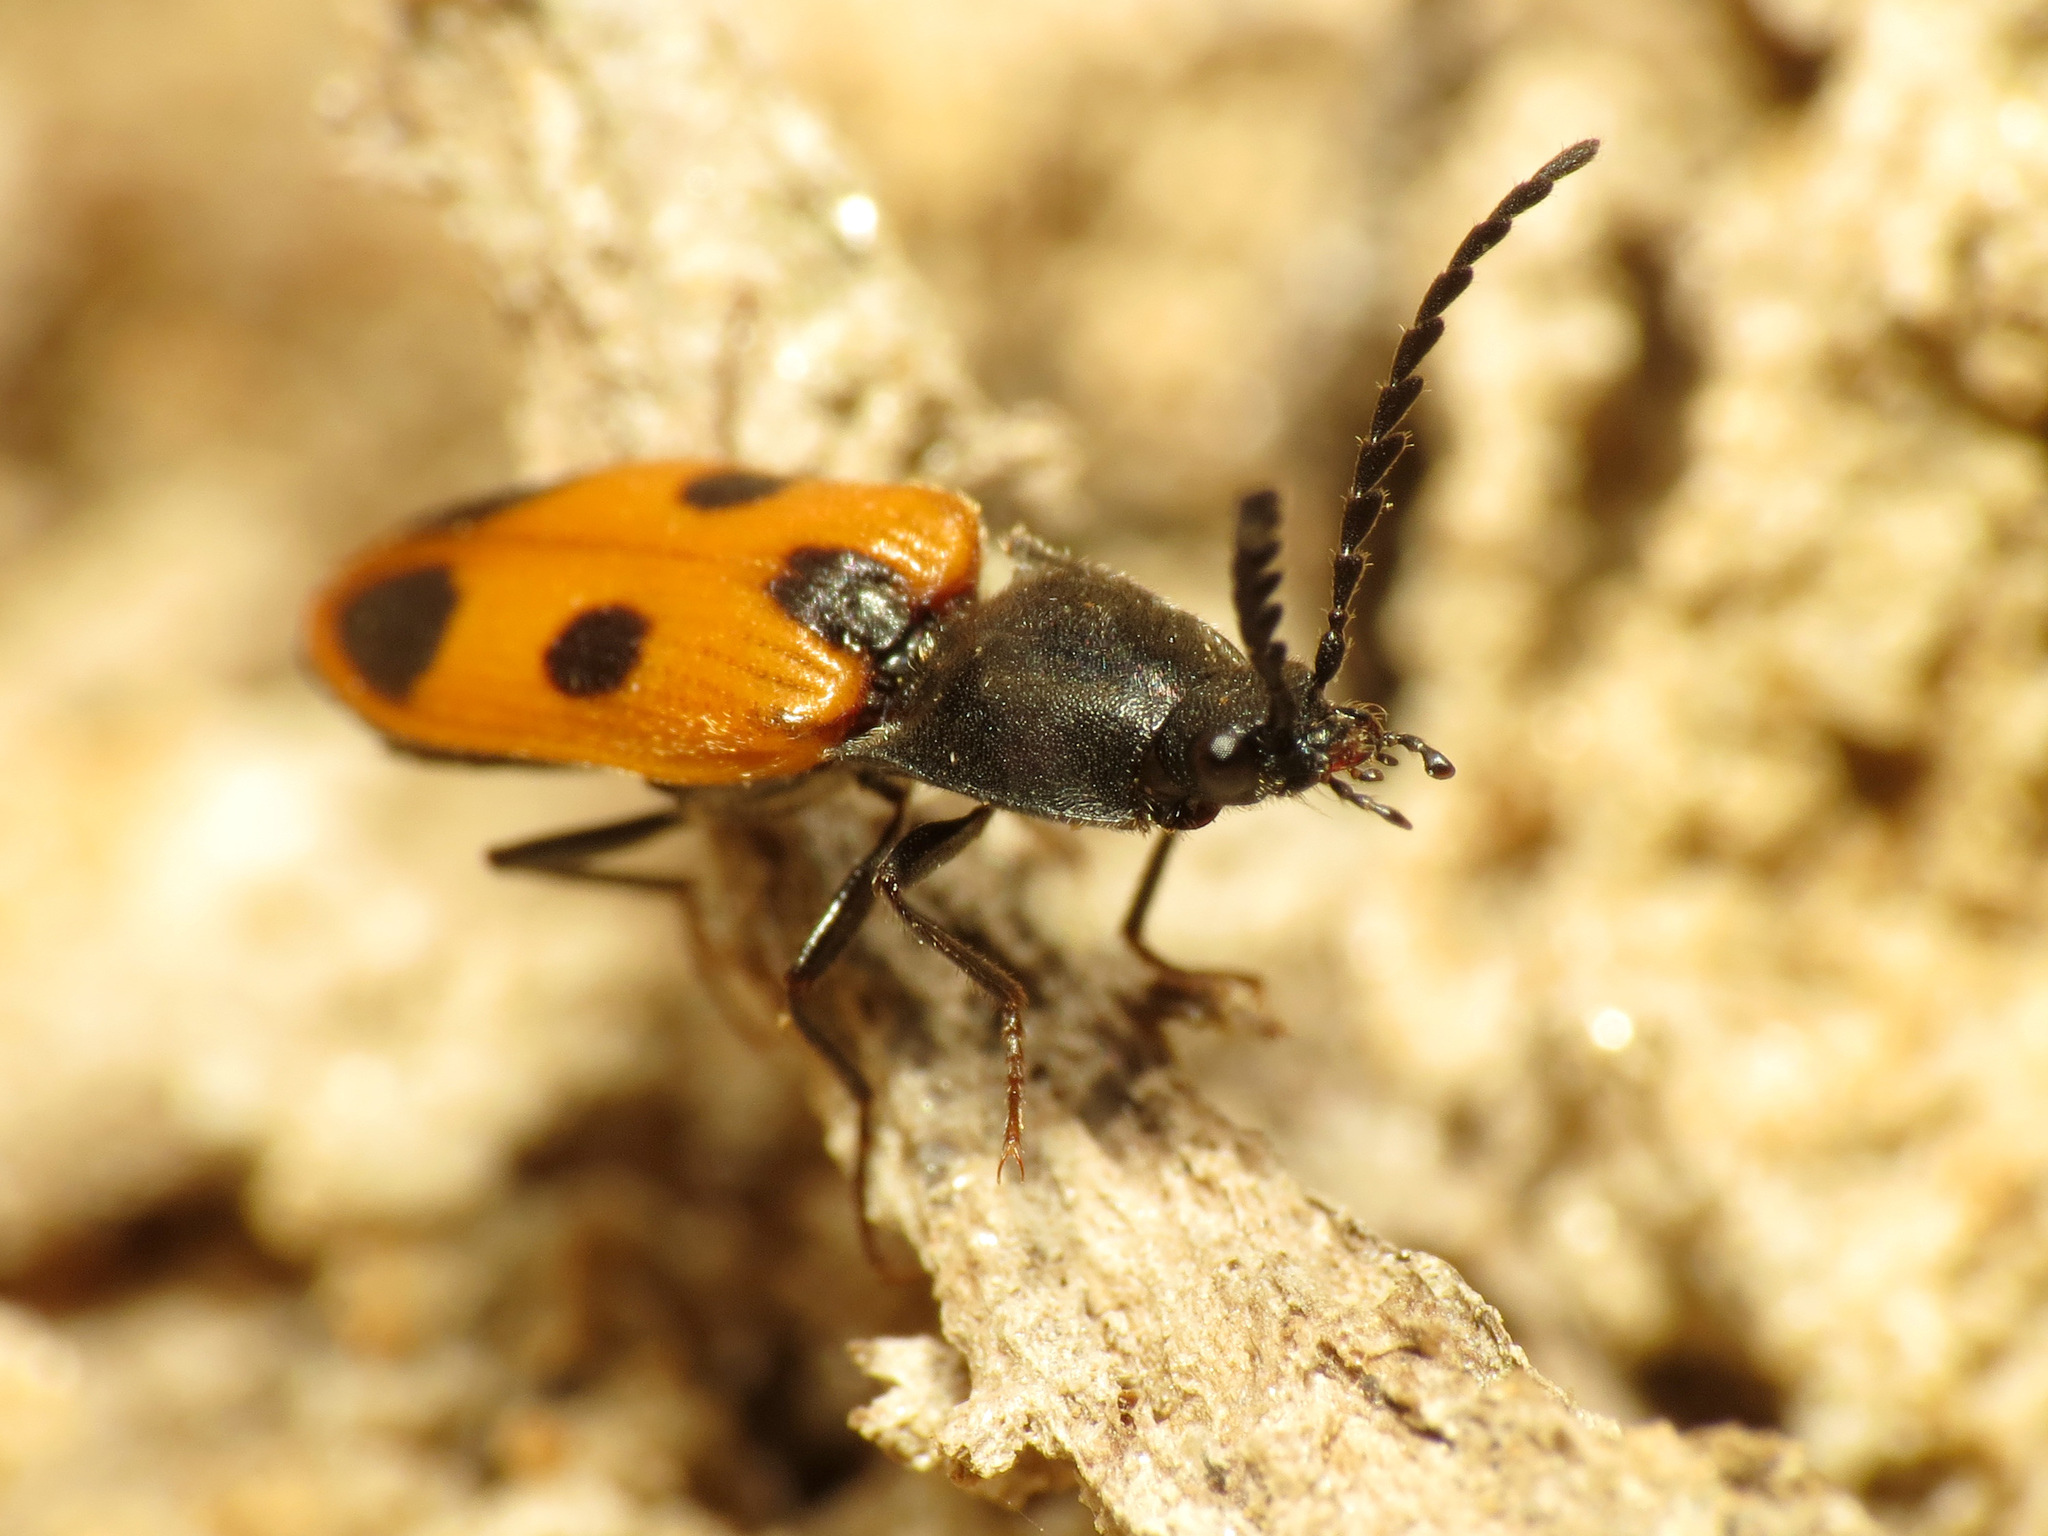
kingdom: Animalia
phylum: Arthropoda
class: Insecta
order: Coleoptera
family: Elateridae
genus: Anostirus
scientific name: Anostirus vernalis
